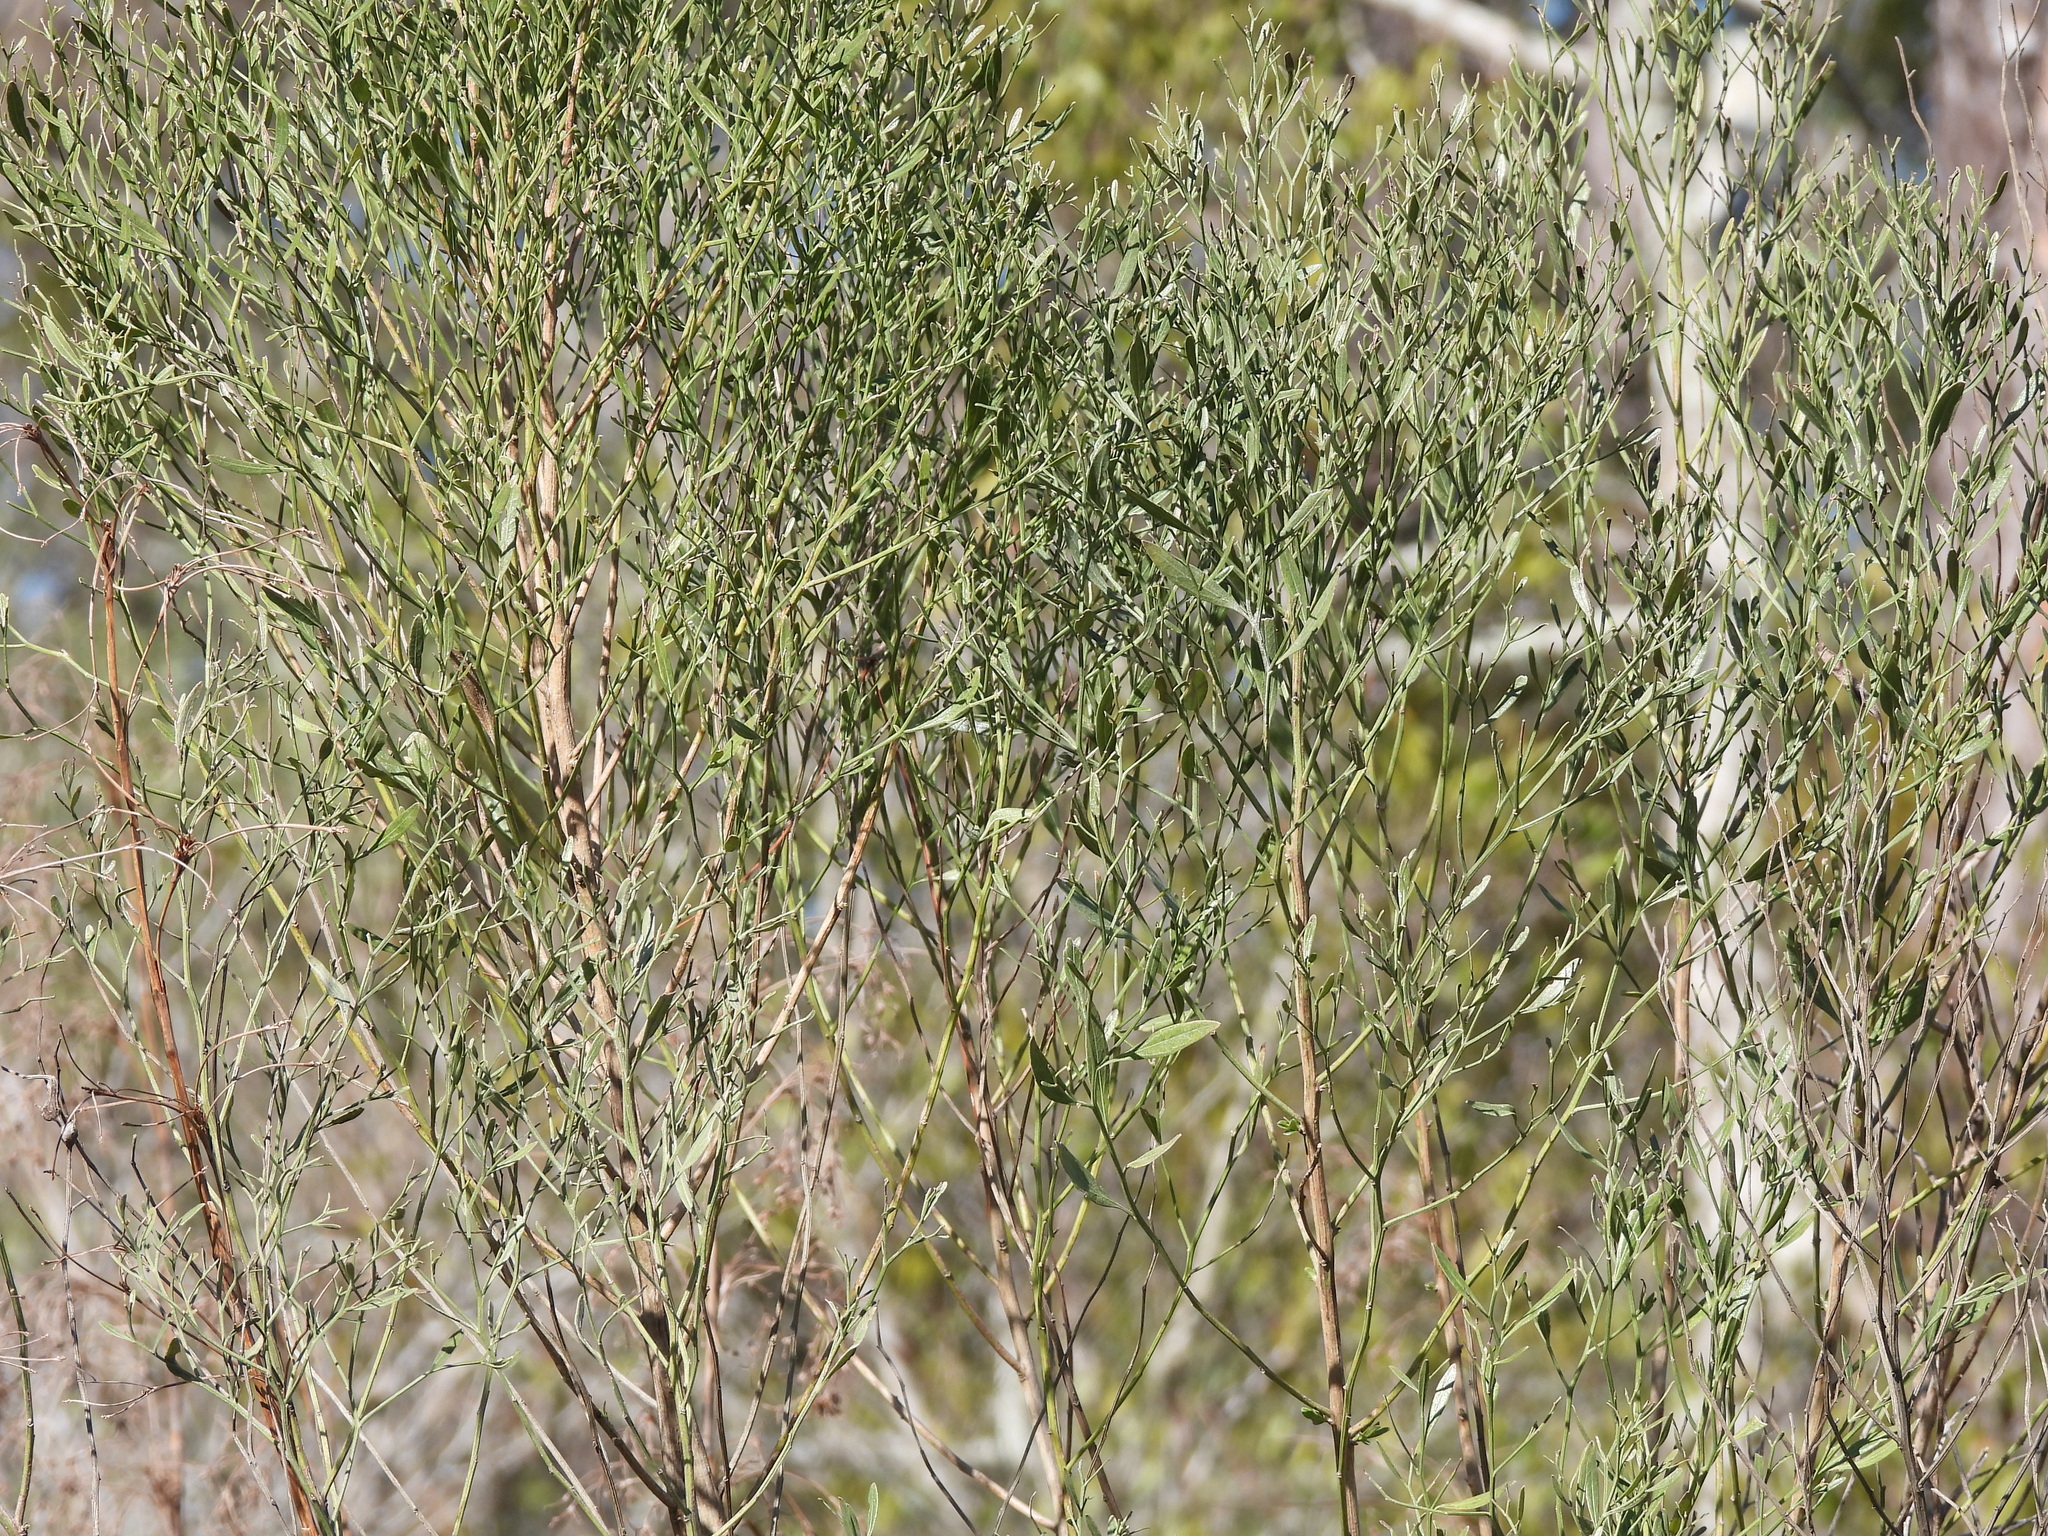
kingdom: Plantae
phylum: Tracheophyta
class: Magnoliopsida
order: Asterales
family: Asteraceae
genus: Baccharis
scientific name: Baccharis halimifolia
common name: Eastern baccharis
